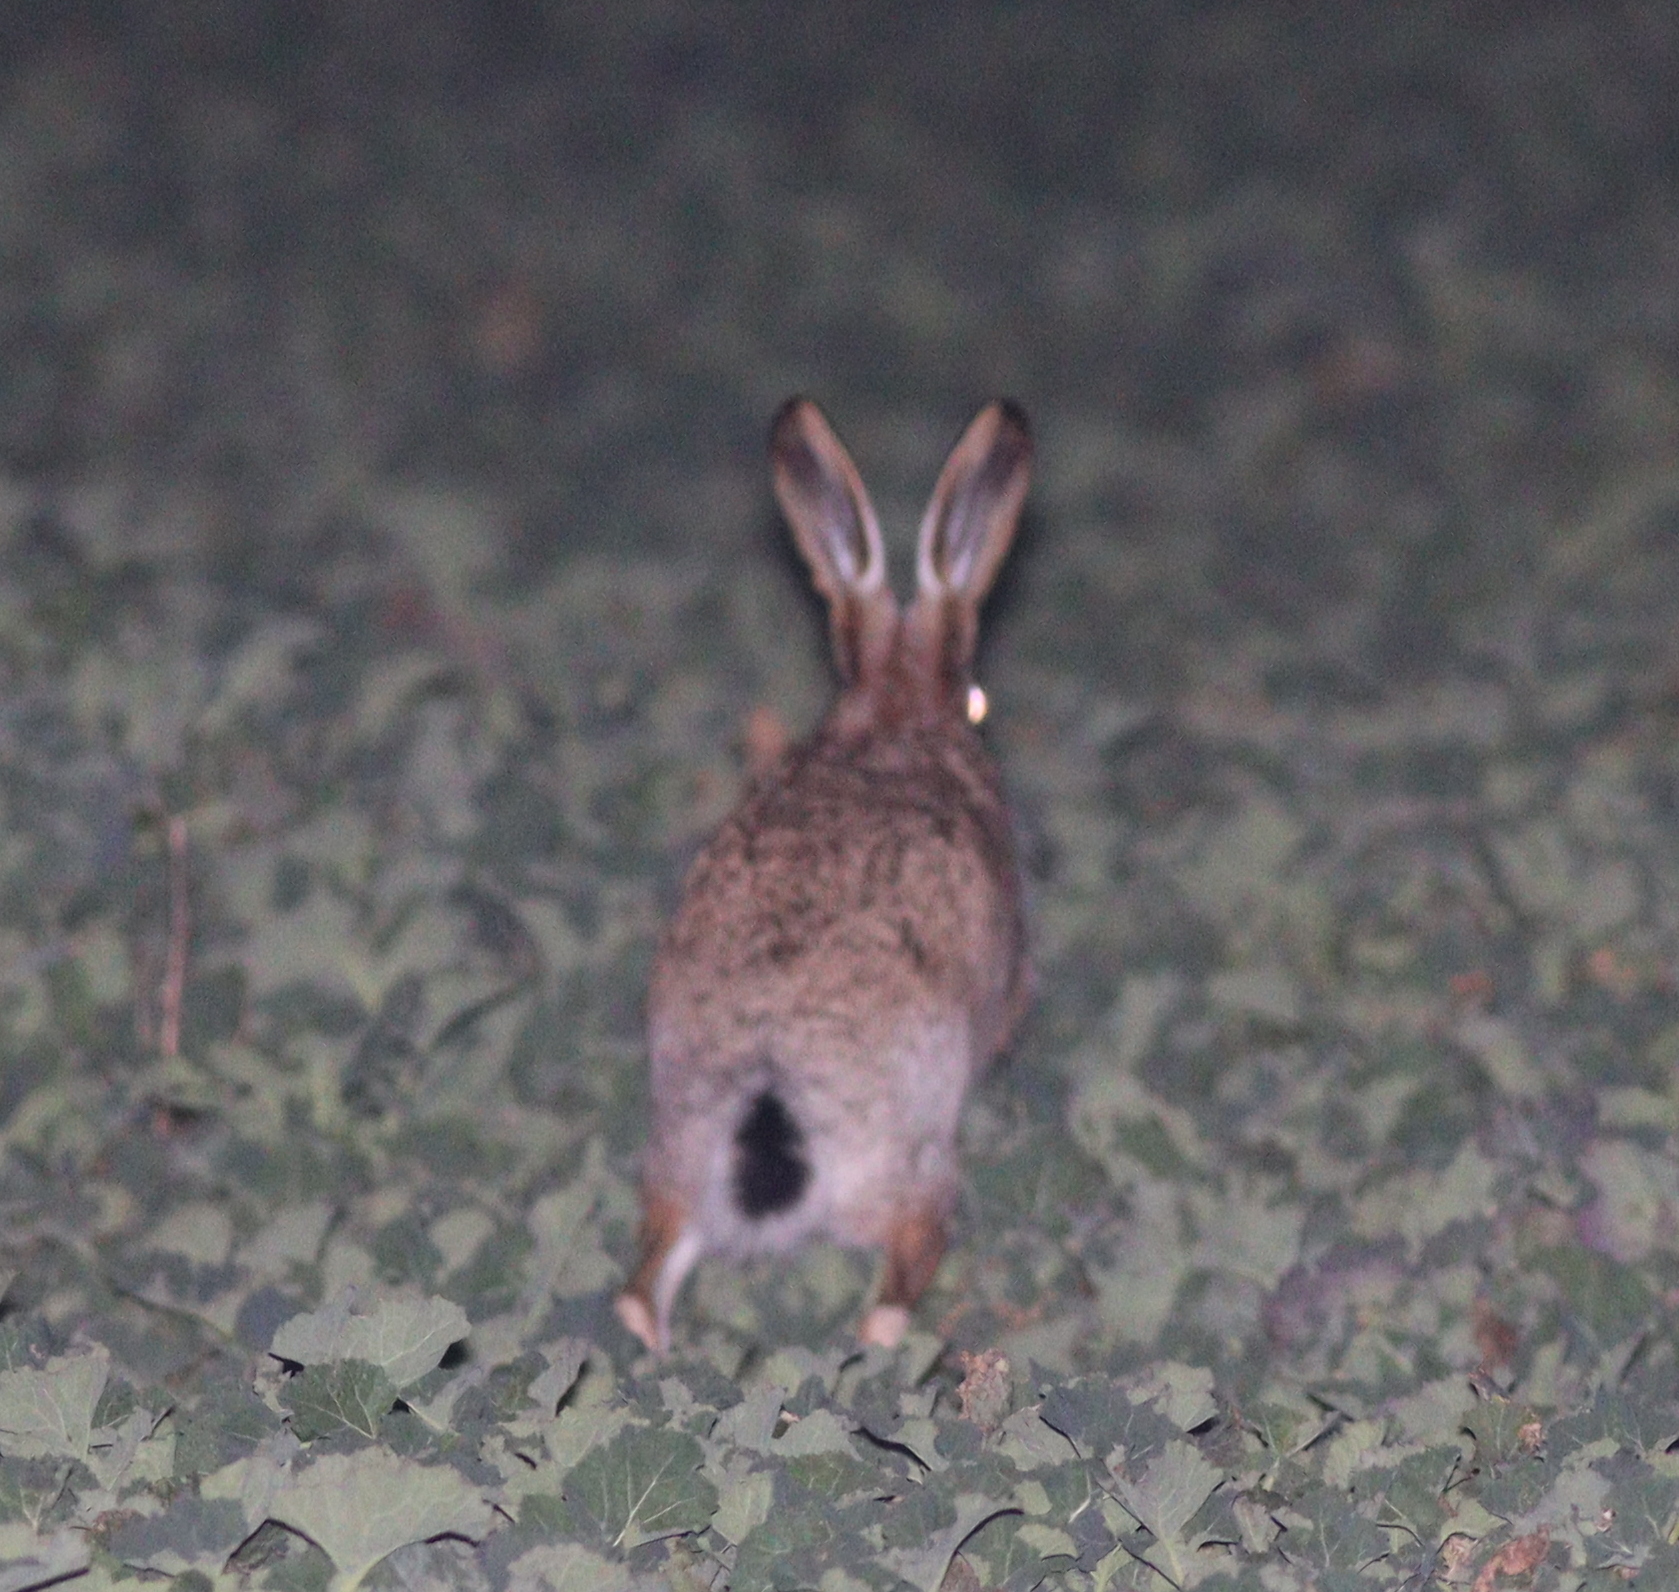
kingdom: Animalia
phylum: Chordata
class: Mammalia
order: Lagomorpha
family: Leporidae
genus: Lepus
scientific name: Lepus europaeus
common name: European hare
